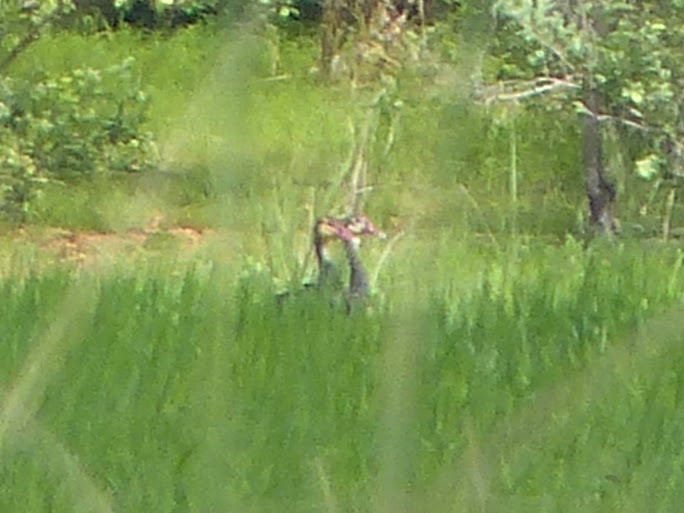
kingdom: Animalia
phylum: Chordata
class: Aves
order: Anseriformes
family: Anatidae
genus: Plectropterus
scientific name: Plectropterus gambensis
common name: Spur-winged goose
